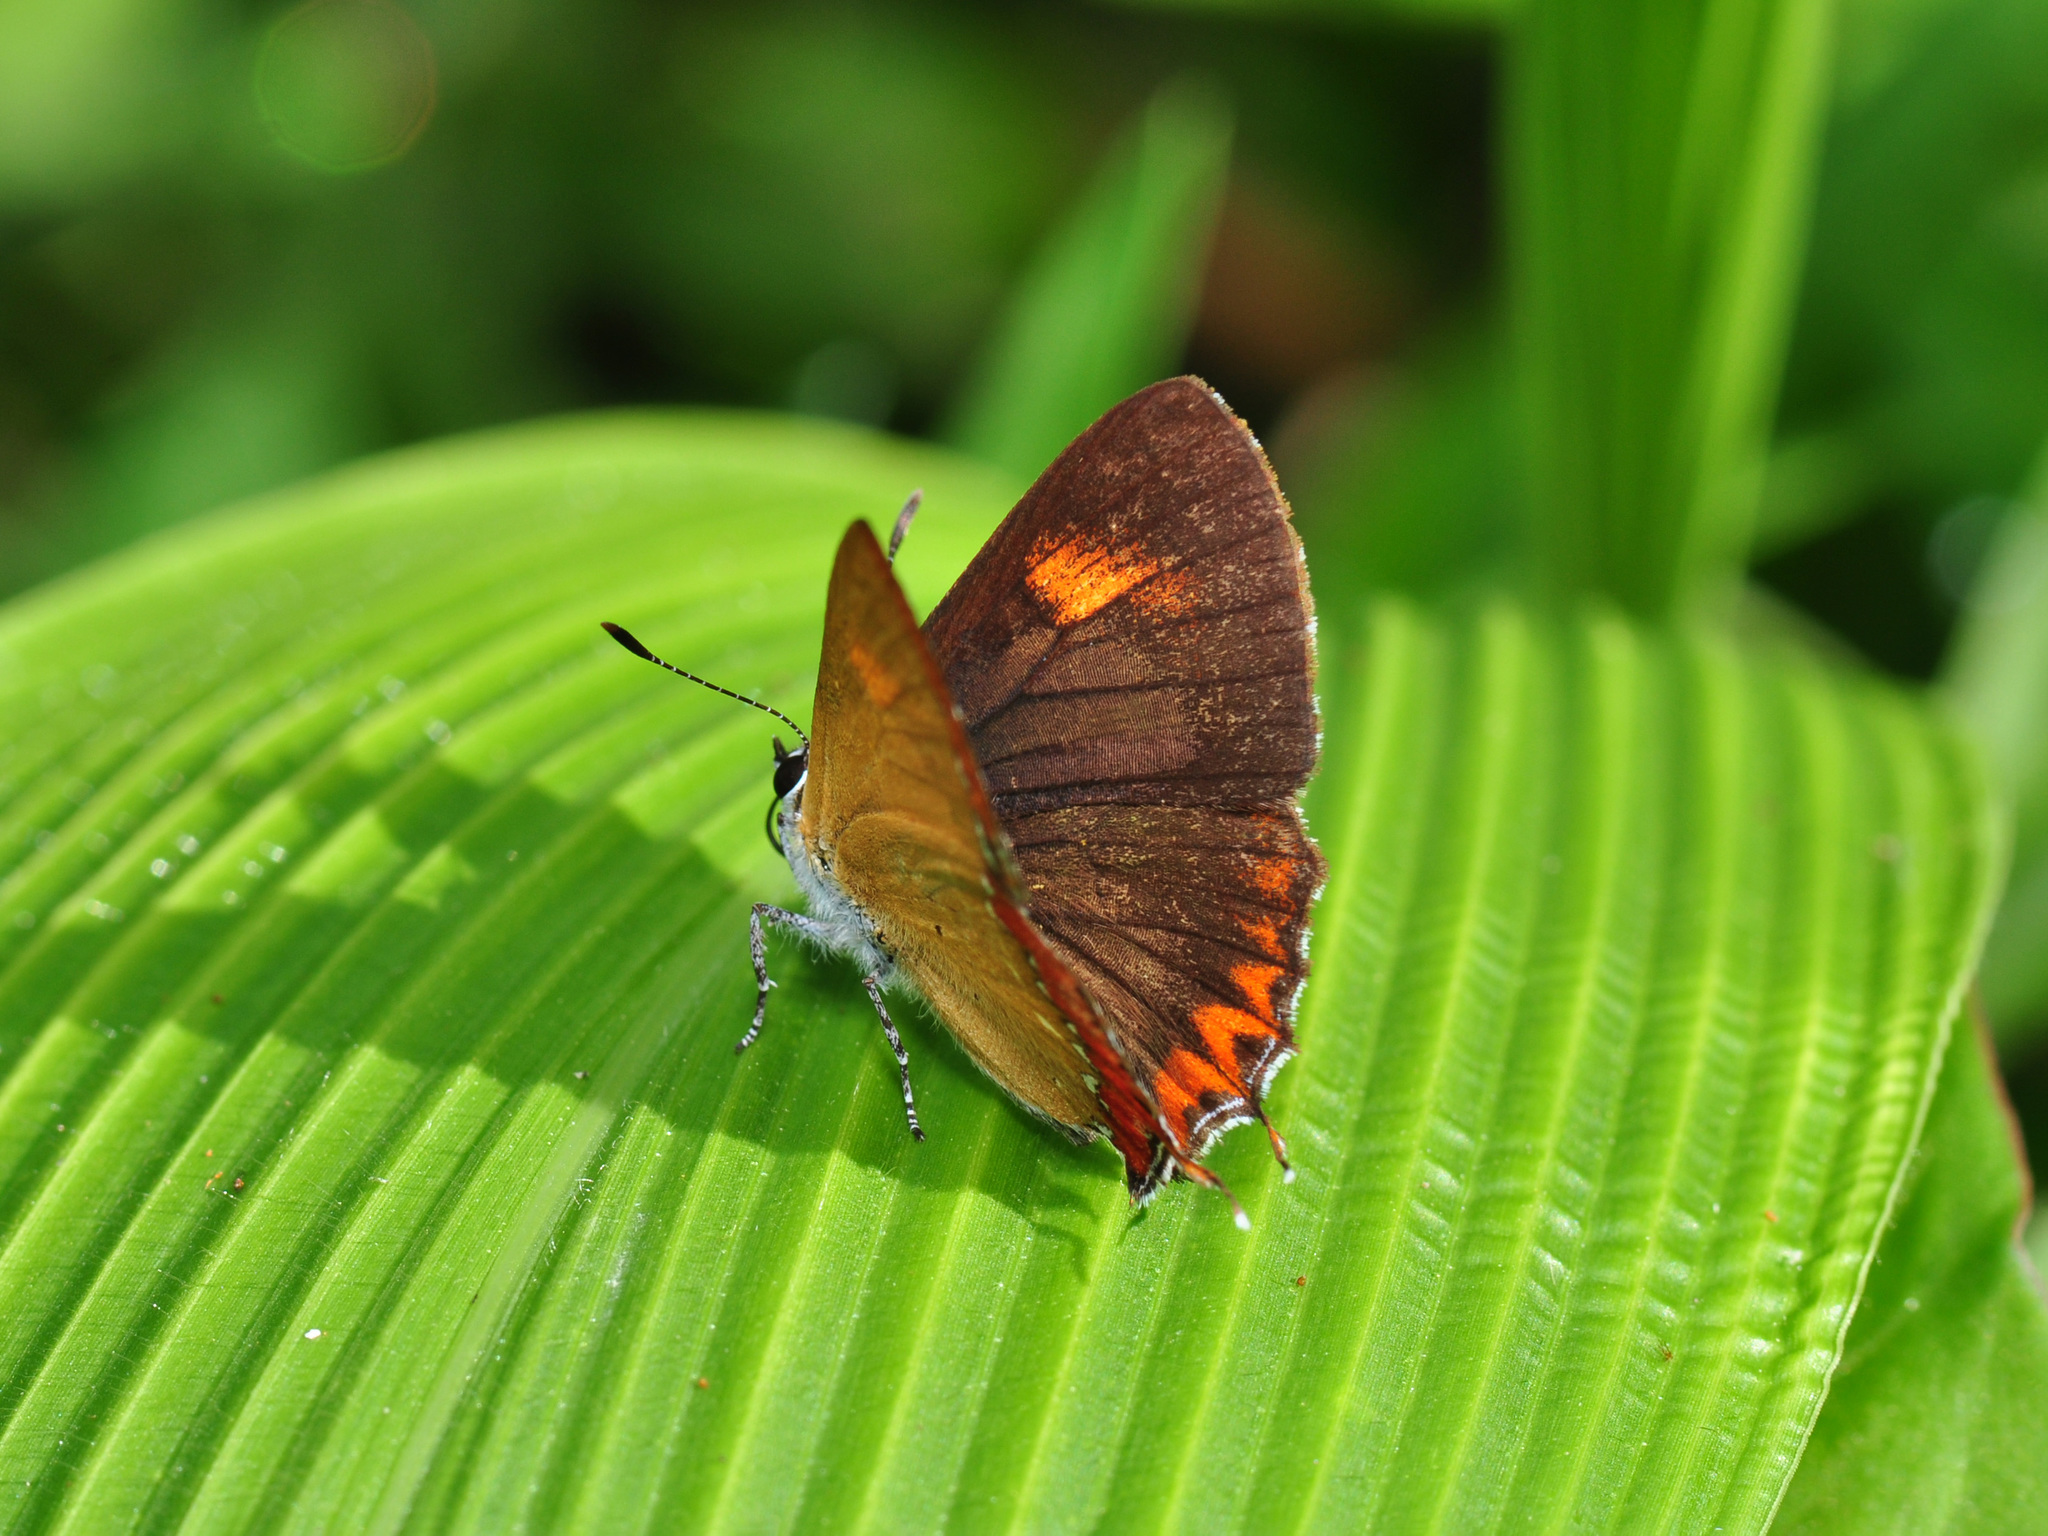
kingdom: Animalia
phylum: Arthropoda
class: Insecta
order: Lepidoptera
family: Lycaenidae
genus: Heliophorus
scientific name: Heliophorus epicles
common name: Purple sapphire
